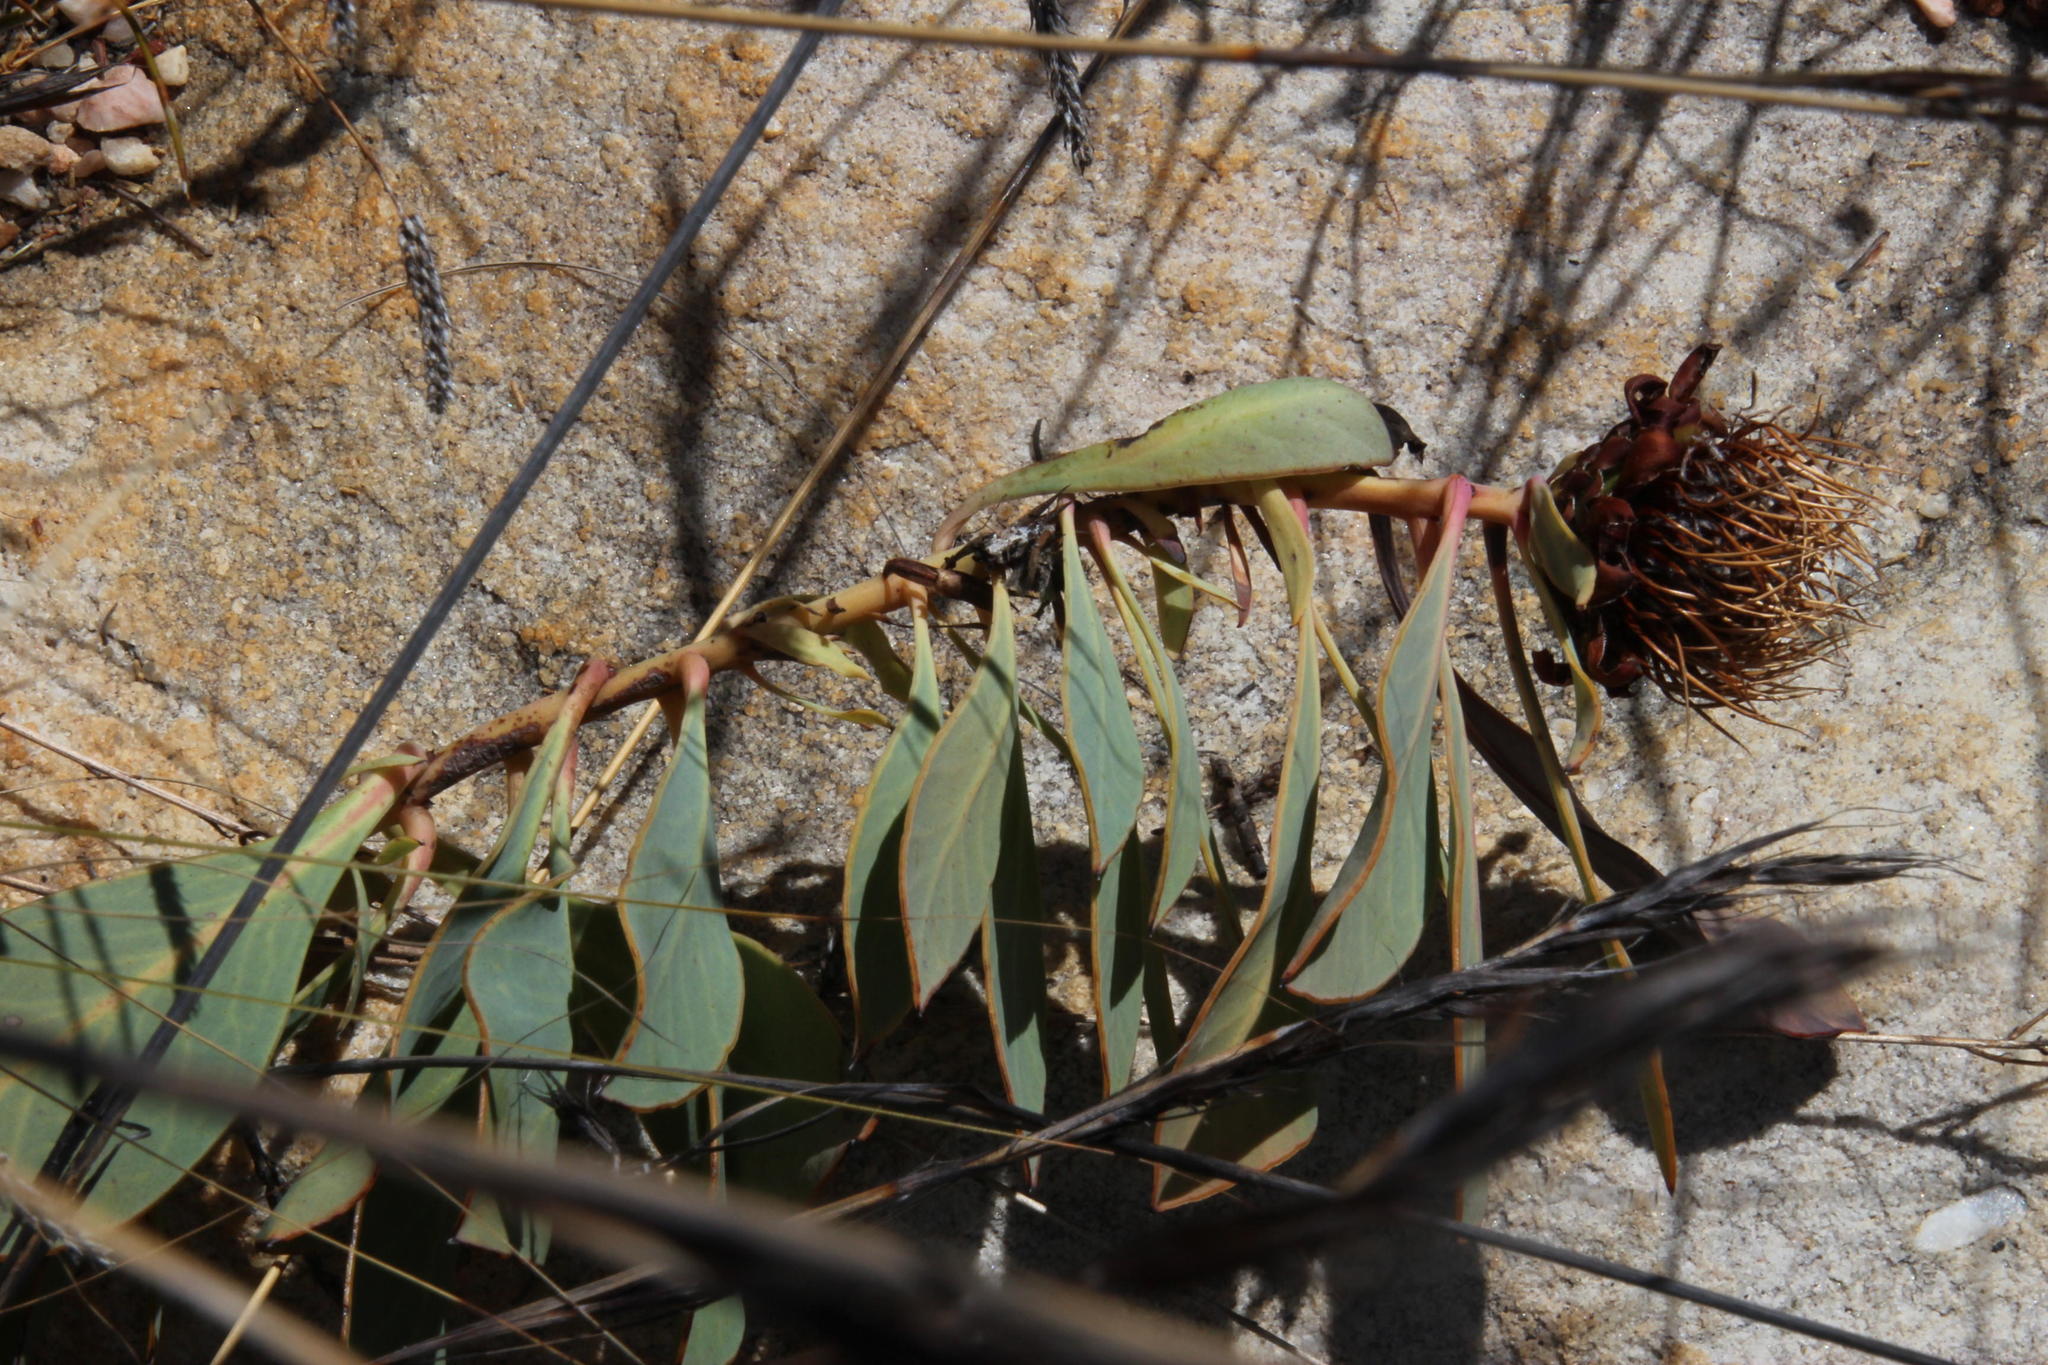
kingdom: Plantae
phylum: Tracheophyta
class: Magnoliopsida
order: Proteales
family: Proteaceae
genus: Protea
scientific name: Protea acaulos
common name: Common ground sugarbush
